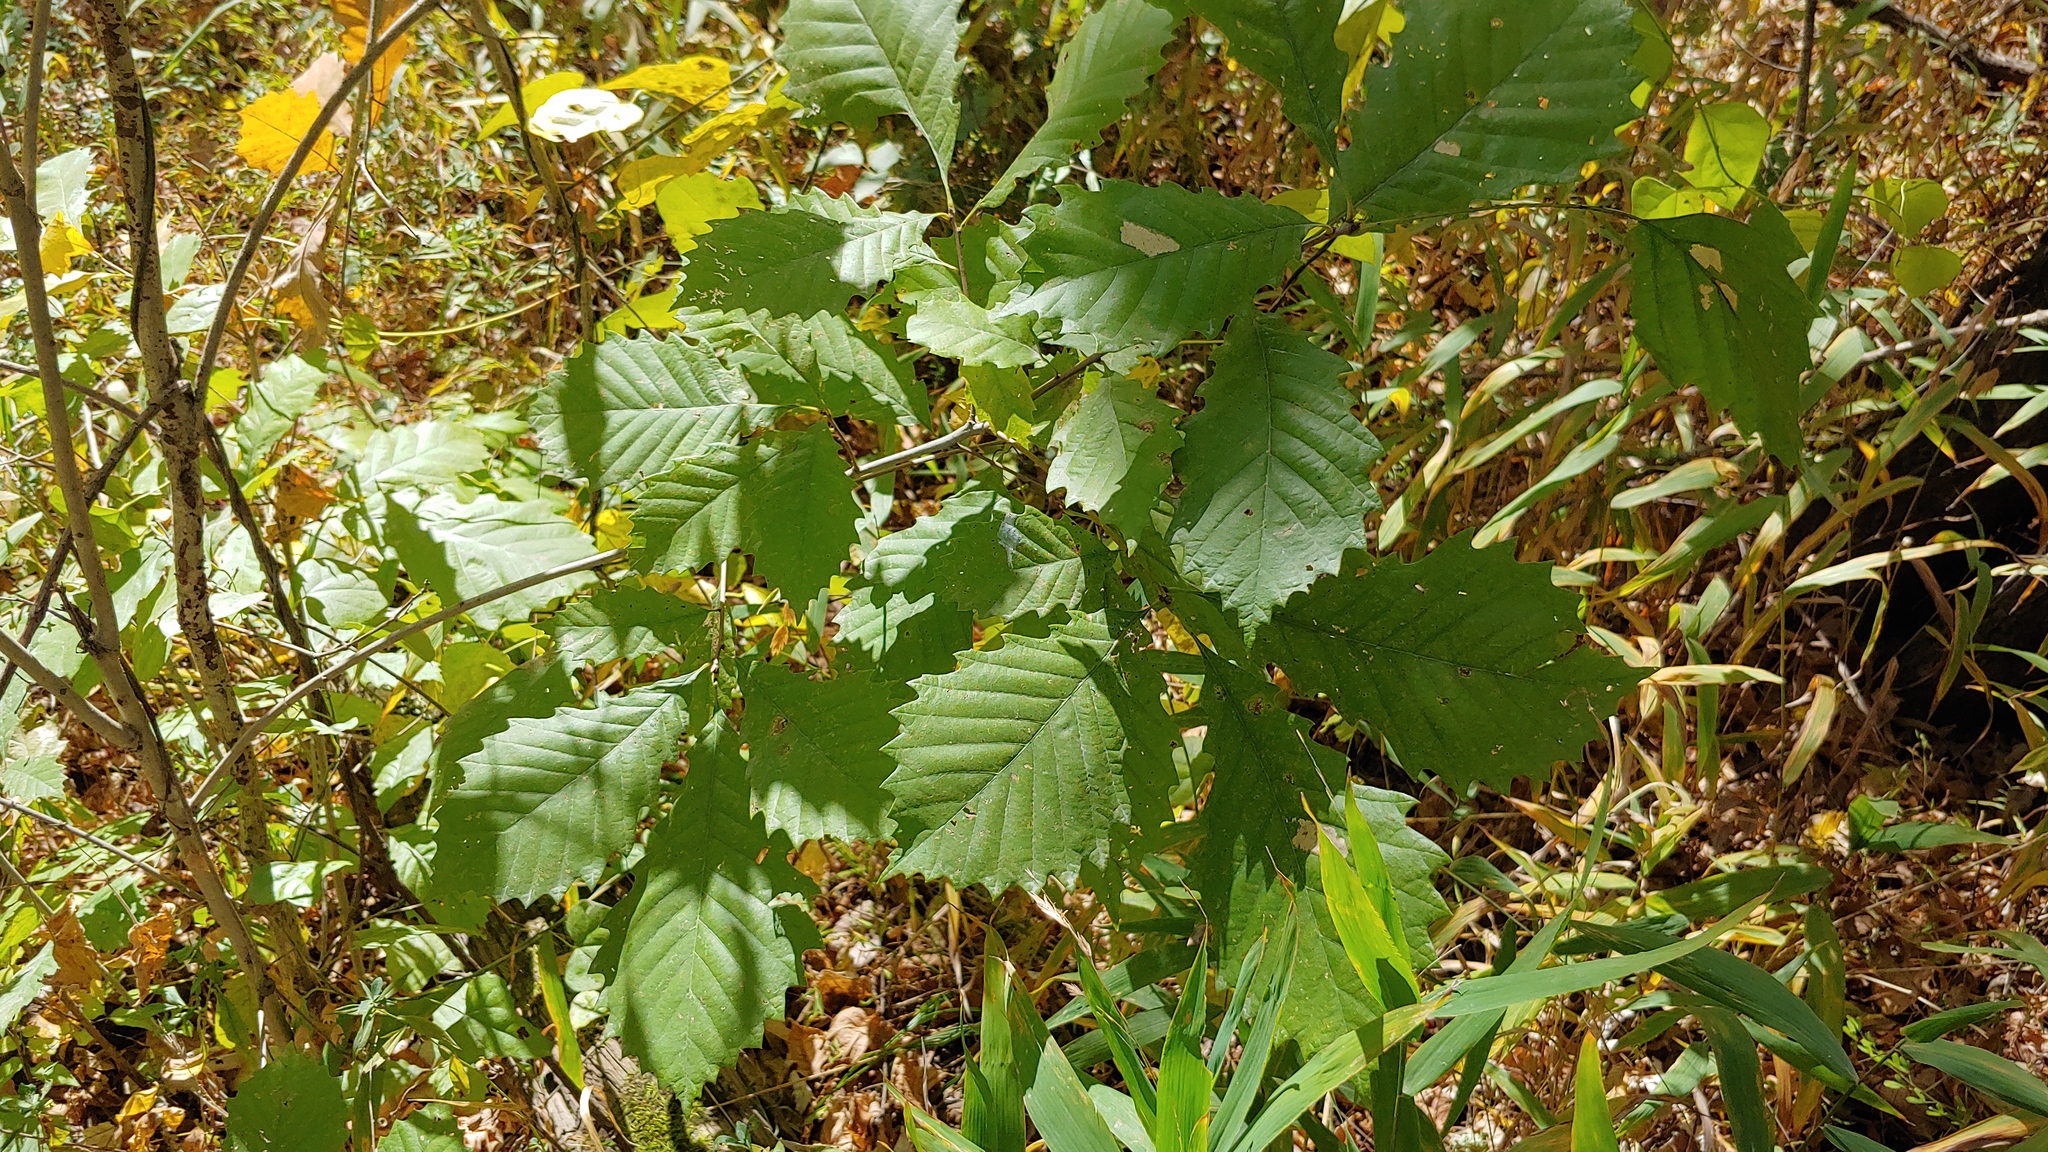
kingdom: Plantae
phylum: Tracheophyta
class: Magnoliopsida
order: Fagales
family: Fagaceae
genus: Quercus
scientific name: Quercus muehlenbergii
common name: Chinkapin oak
